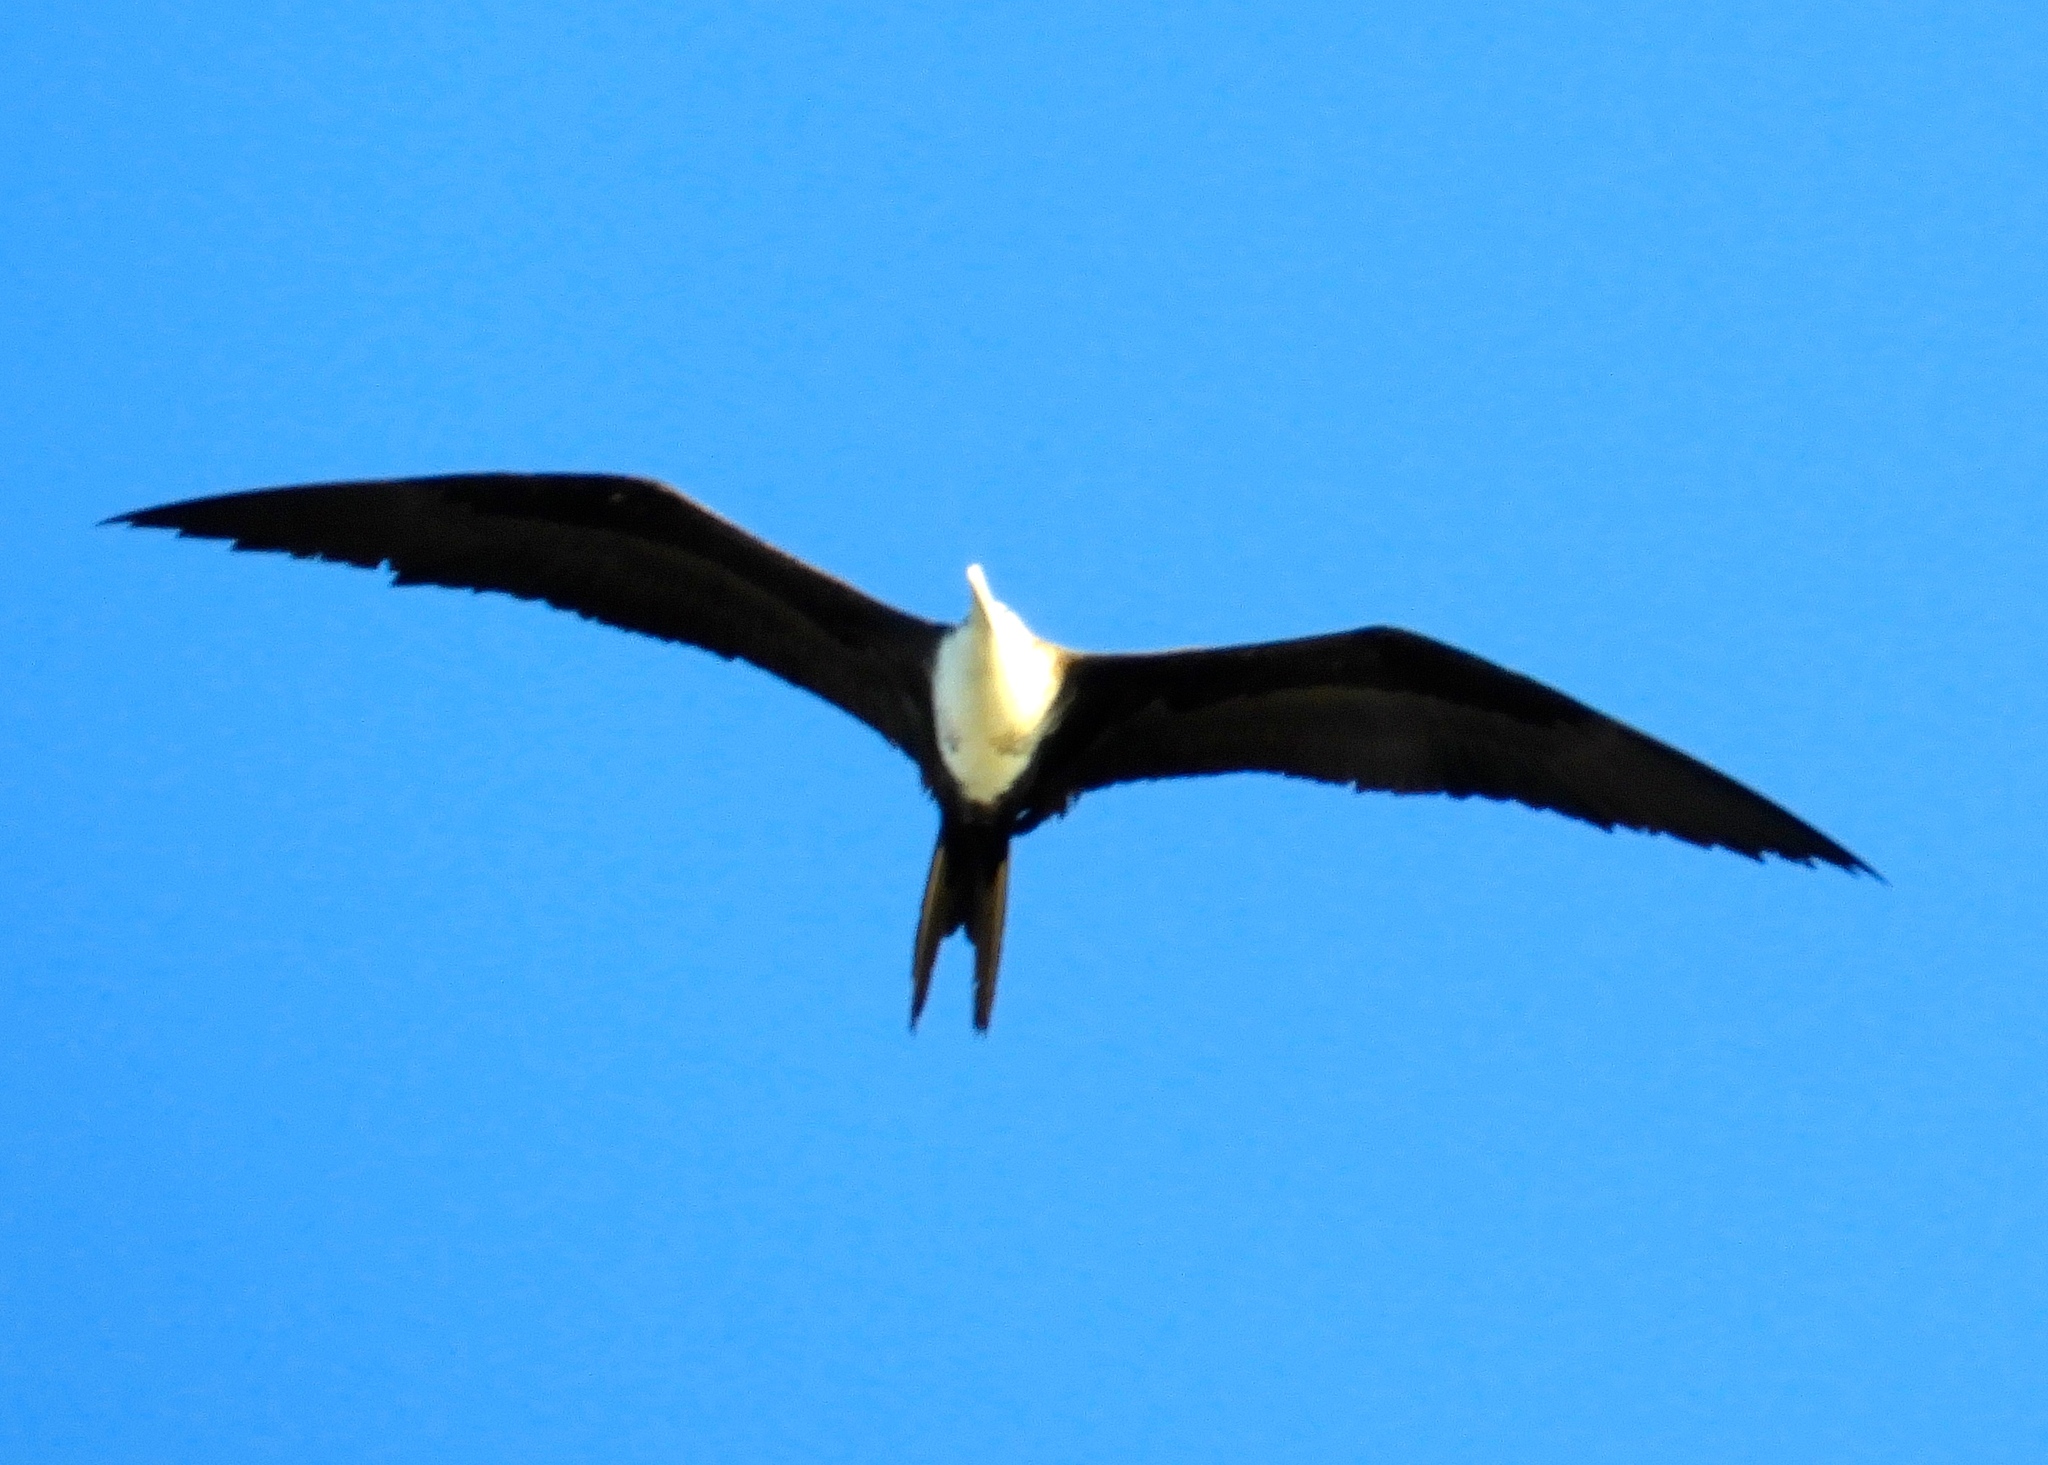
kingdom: Animalia
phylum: Chordata
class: Aves
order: Suliformes
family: Fregatidae
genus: Fregata
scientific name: Fregata magnificens
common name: Magnificent frigatebird
